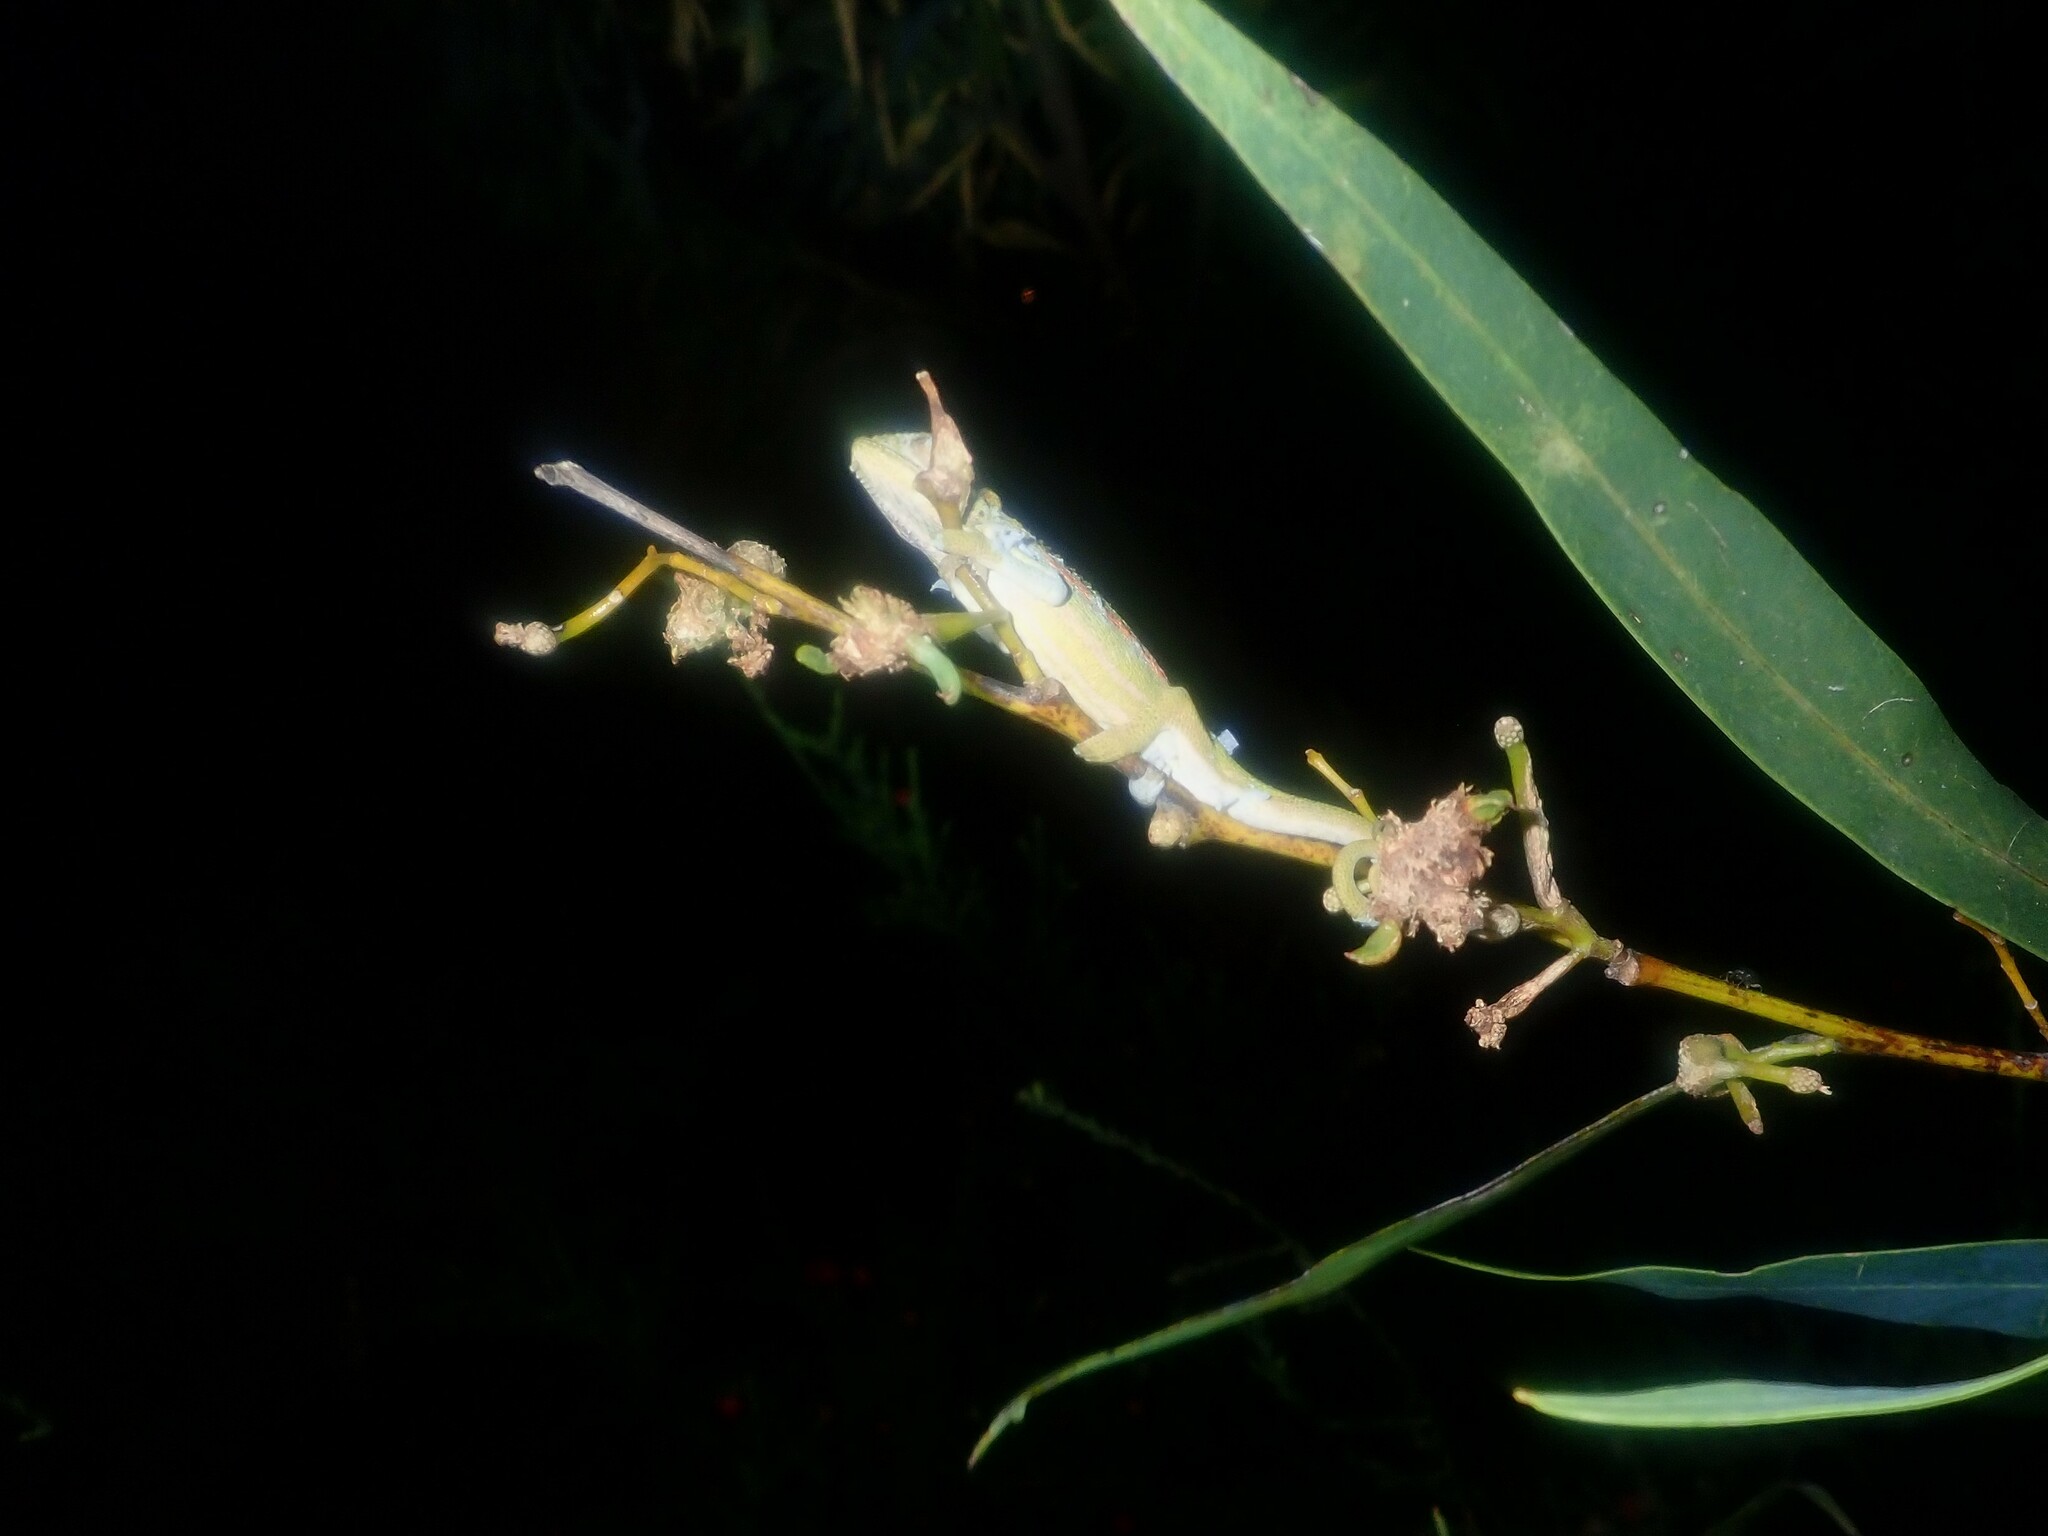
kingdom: Animalia
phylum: Chordata
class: Squamata
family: Chamaeleonidae
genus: Bradypodion
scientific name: Bradypodion pumilum
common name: Cape dwarf chameleon
